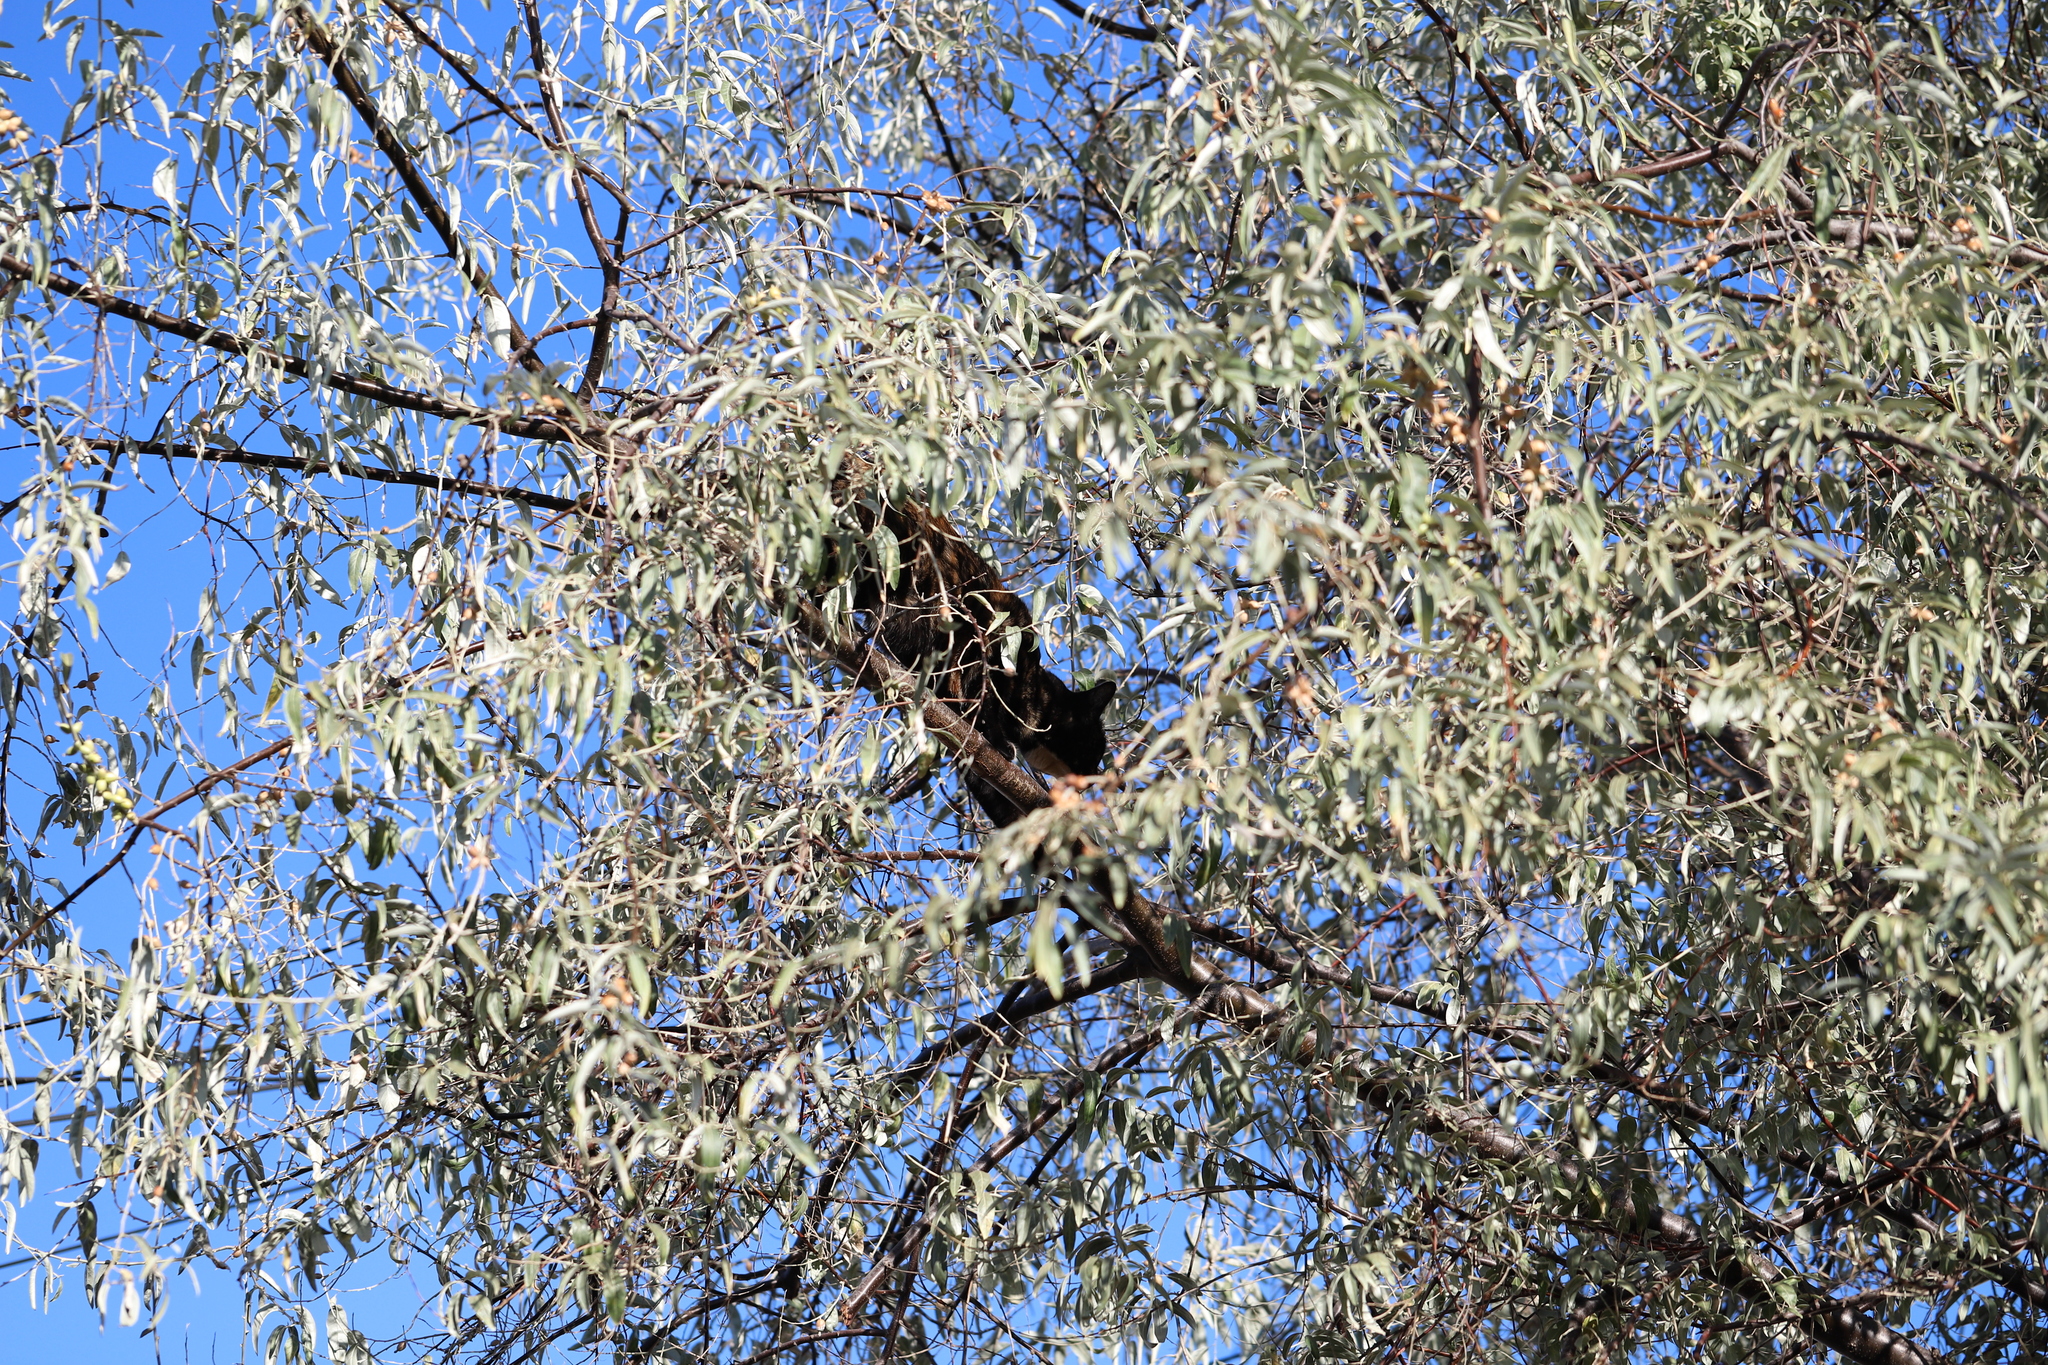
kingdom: Animalia
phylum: Chordata
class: Mammalia
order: Carnivora
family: Felidae
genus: Felis
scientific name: Felis catus
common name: Domestic cat
